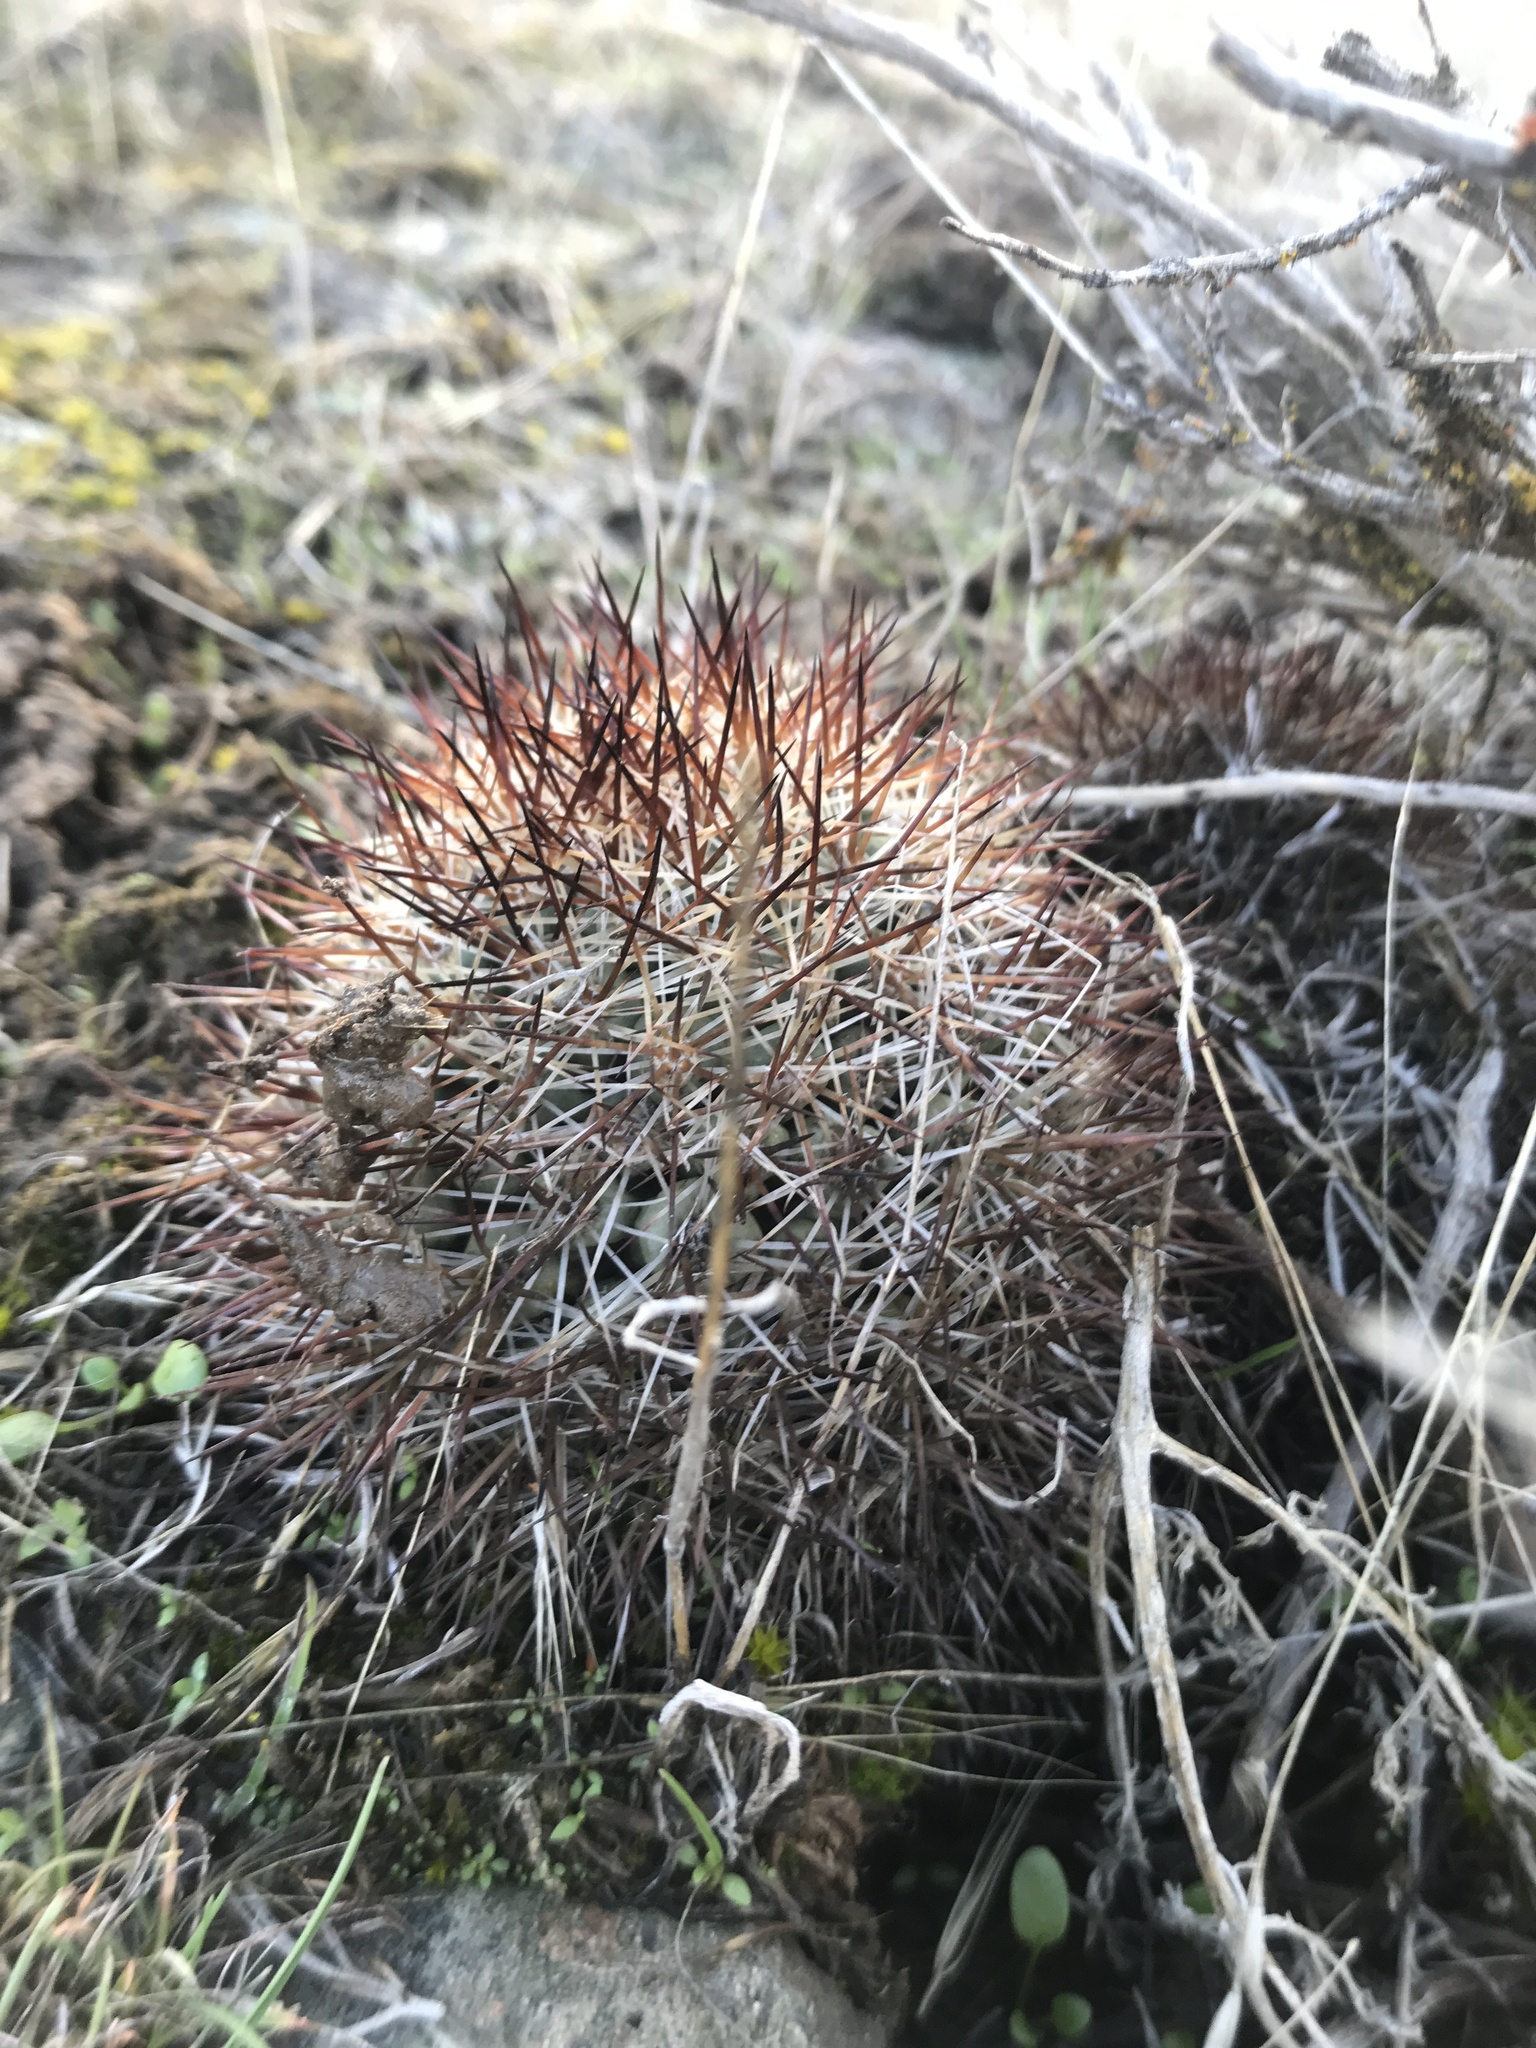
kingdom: Plantae
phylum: Tracheophyta
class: Magnoliopsida
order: Caryophyllales
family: Cactaceae
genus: Pediocactus
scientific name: Pediocactus nigrispinus
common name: Simpson's hedgehog cactus
